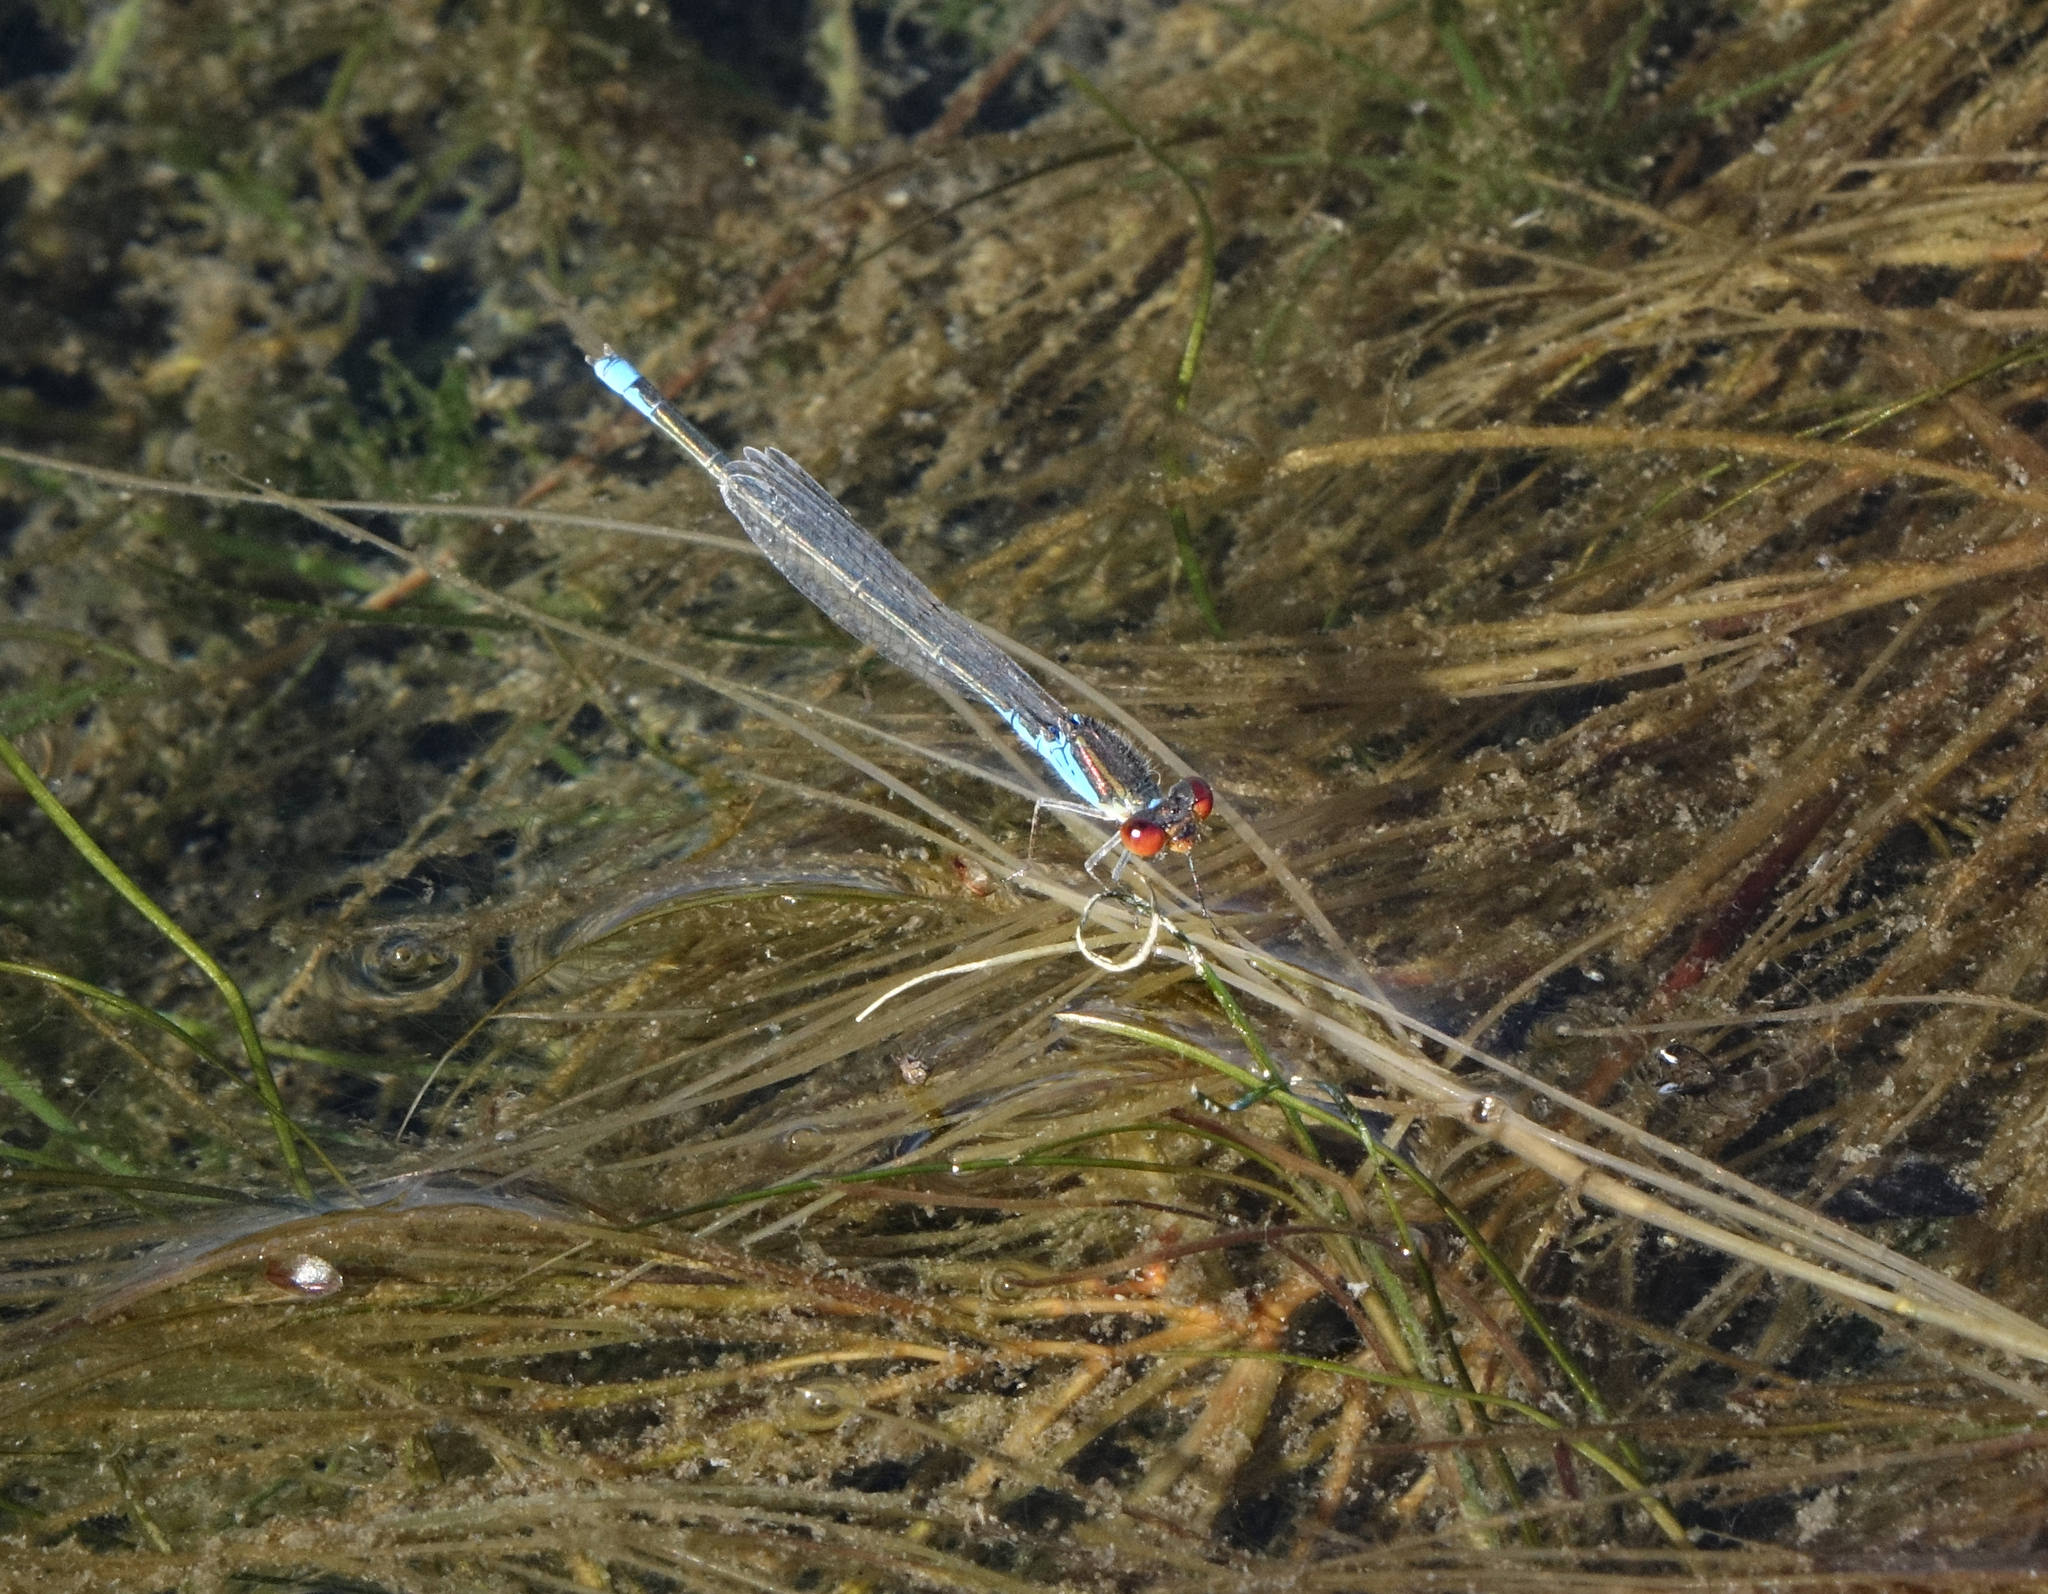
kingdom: Animalia
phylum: Arthropoda
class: Insecta
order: Odonata
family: Coenagrionidae
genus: Erythromma
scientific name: Erythromma viridulum
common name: Small red-eyed damselfly
